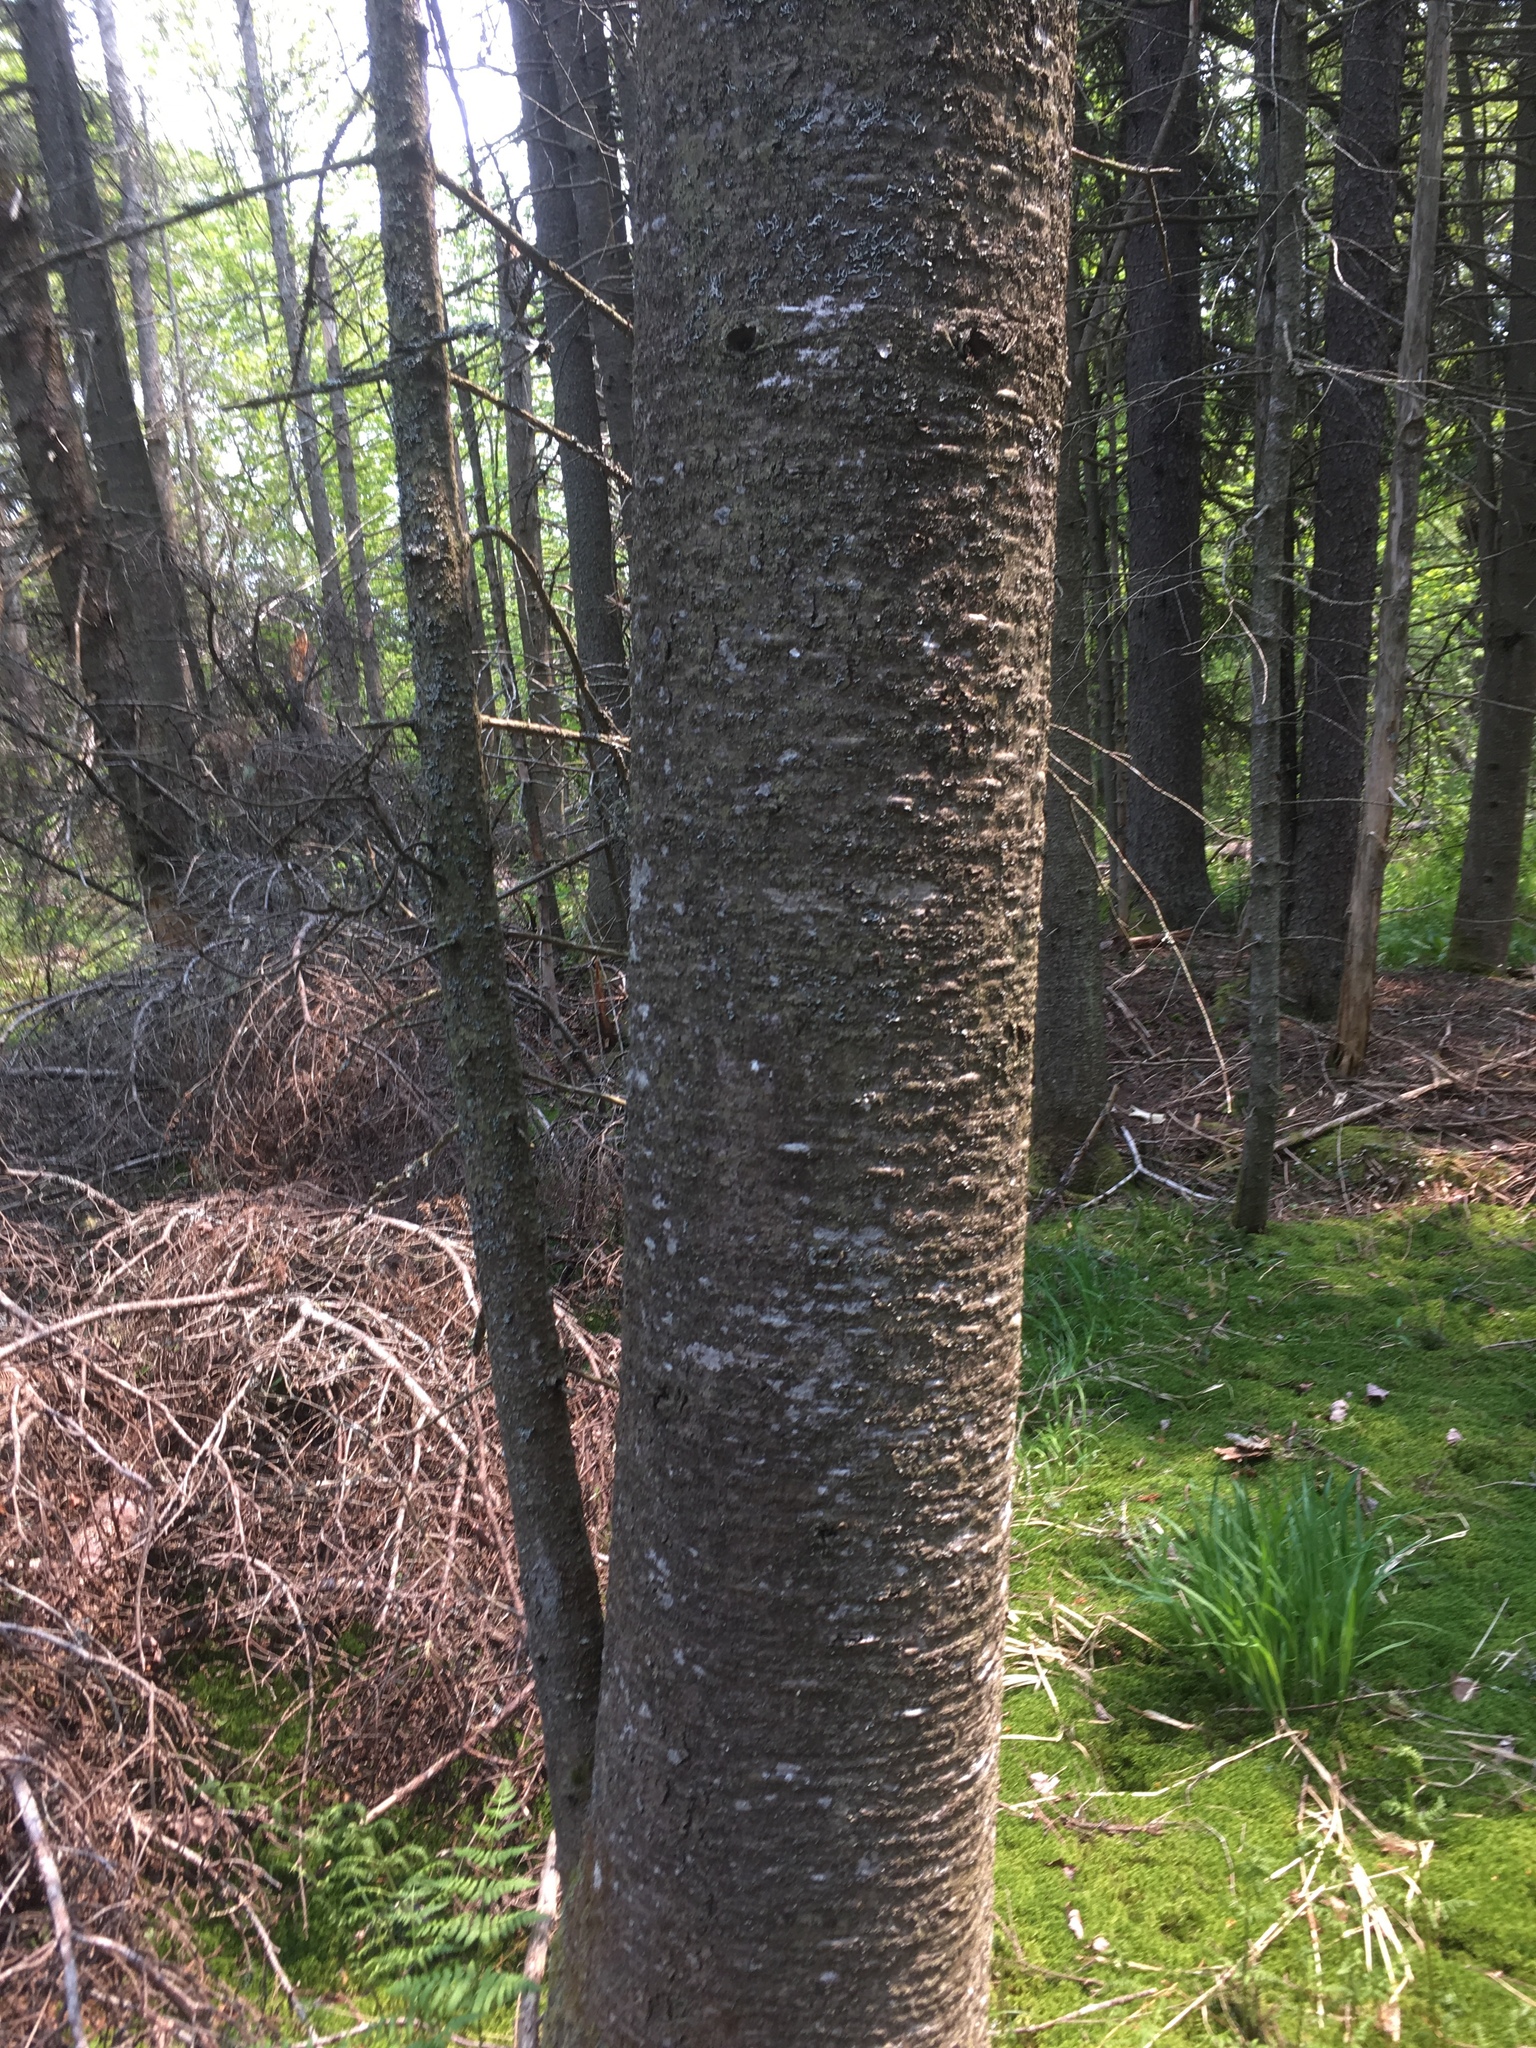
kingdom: Plantae
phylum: Tracheophyta
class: Pinopsida
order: Pinales
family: Pinaceae
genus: Abies
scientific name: Abies balsamea
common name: Balsam fir
